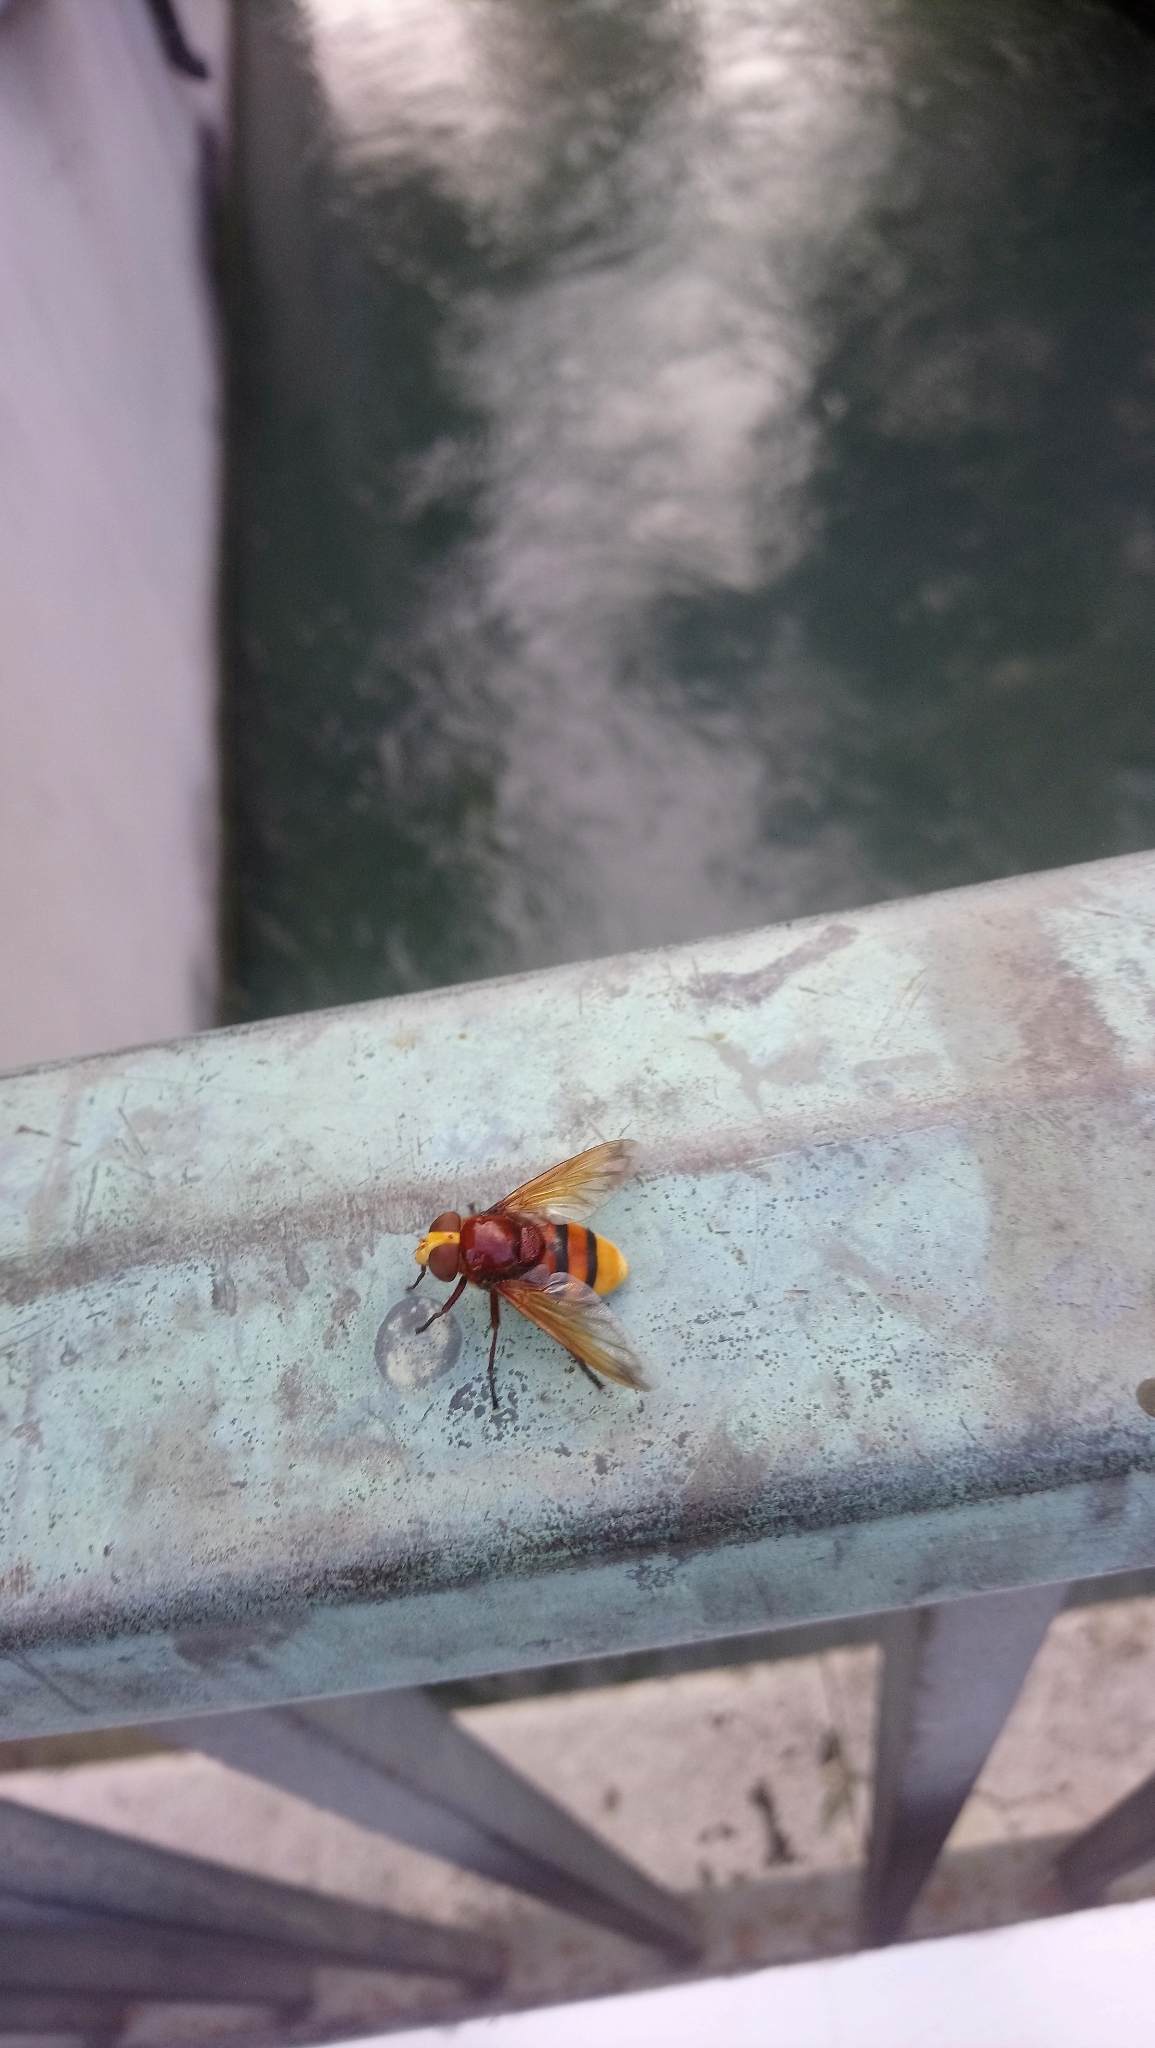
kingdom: Animalia
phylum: Arthropoda
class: Insecta
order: Diptera
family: Syrphidae
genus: Volucella
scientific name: Volucella zonaria
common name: Hornet hoverfly
